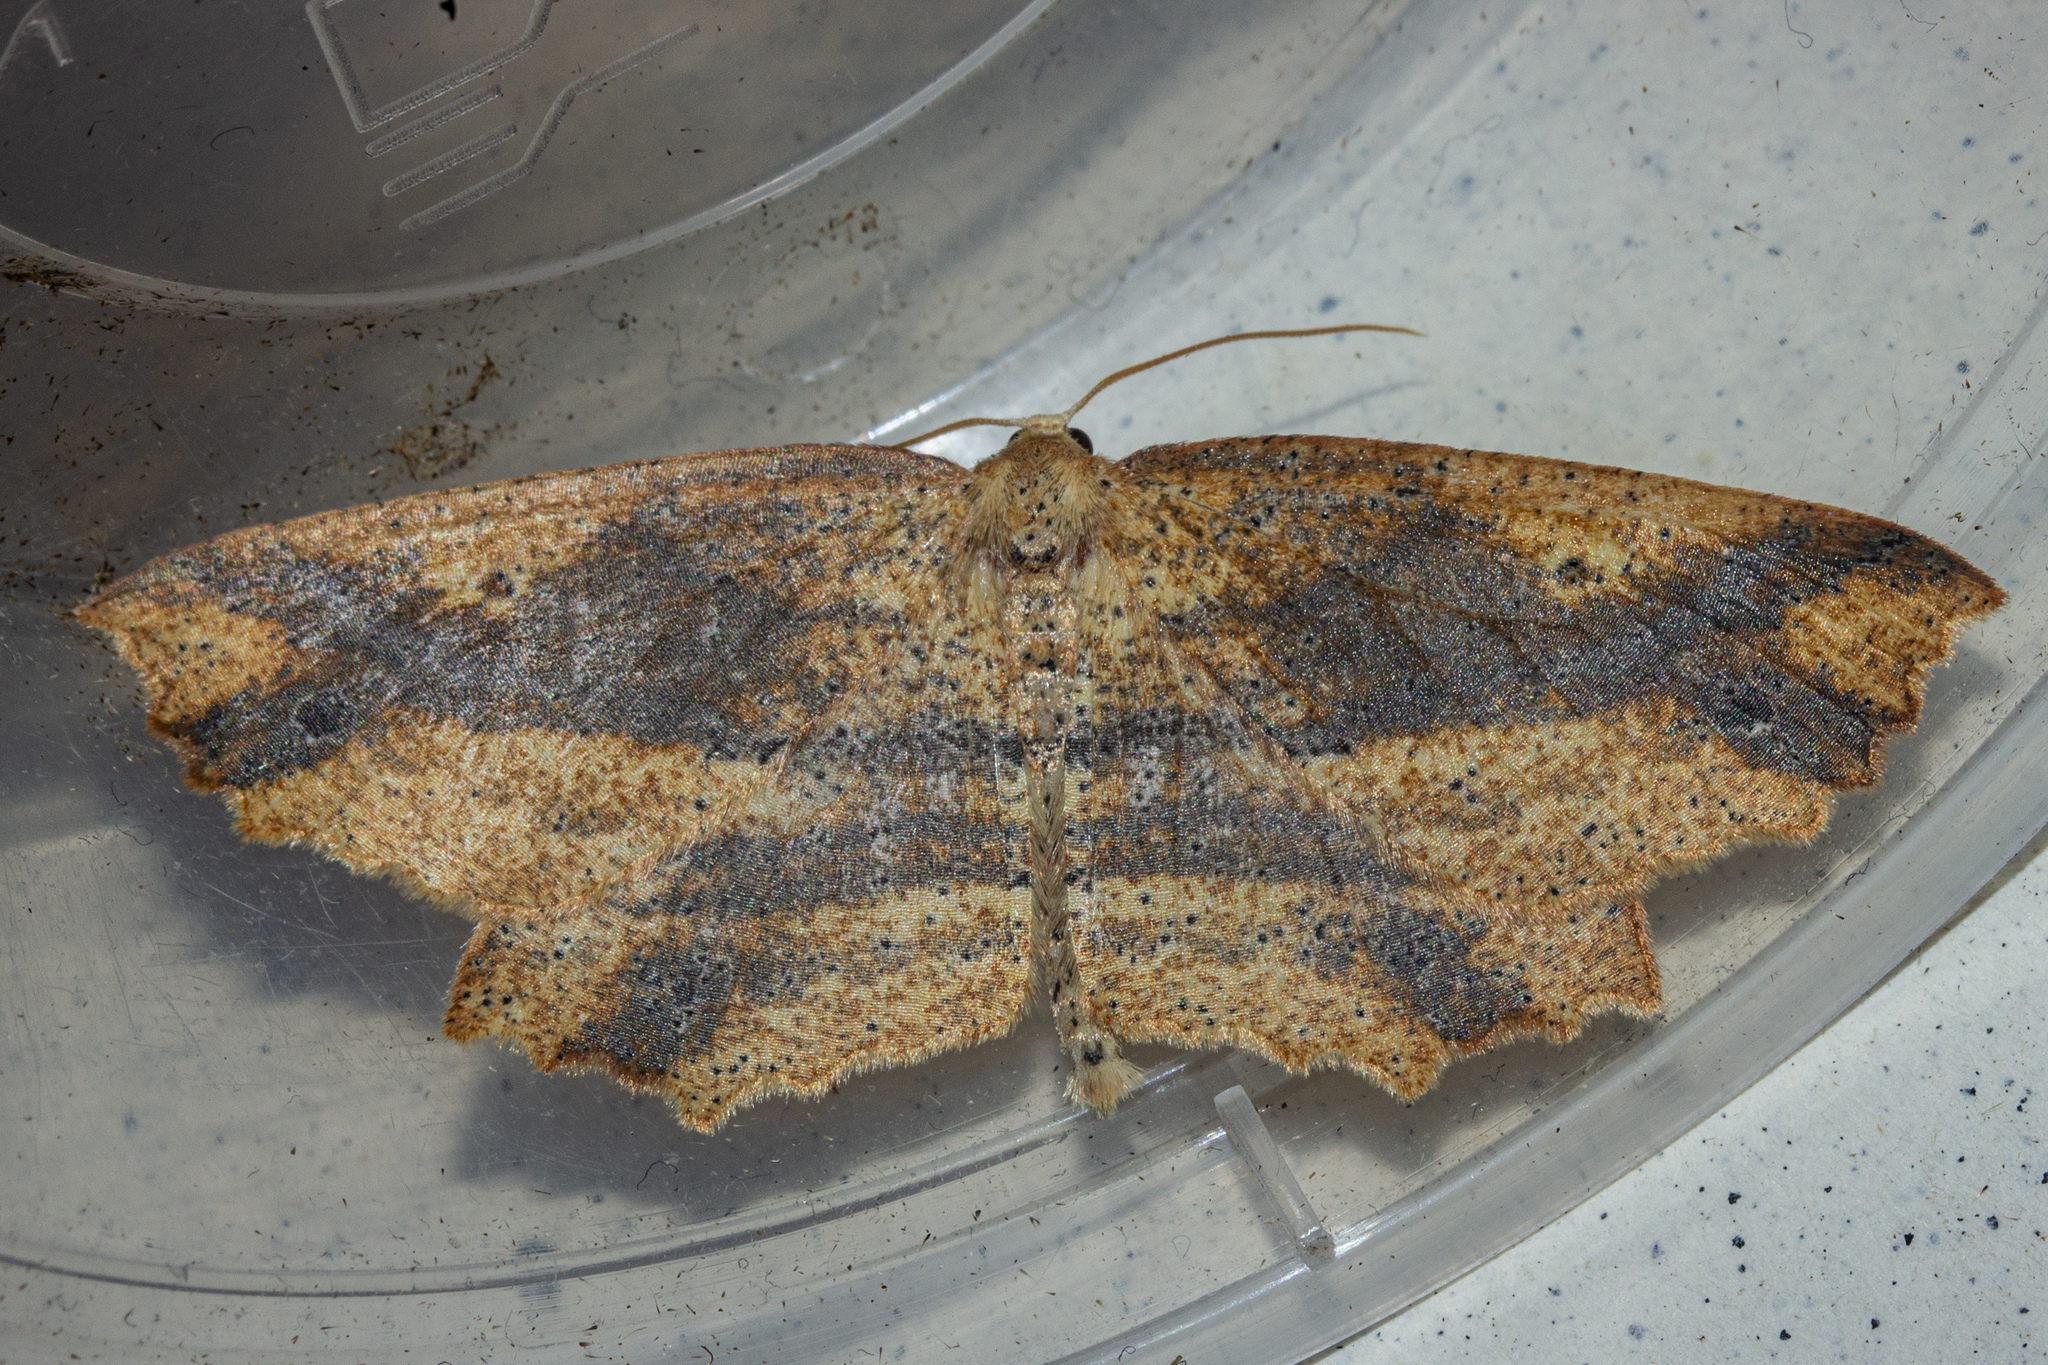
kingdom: Animalia
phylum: Arthropoda
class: Insecta
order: Lepidoptera
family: Geometridae
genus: Xyridacma
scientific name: Xyridacma veronicae
